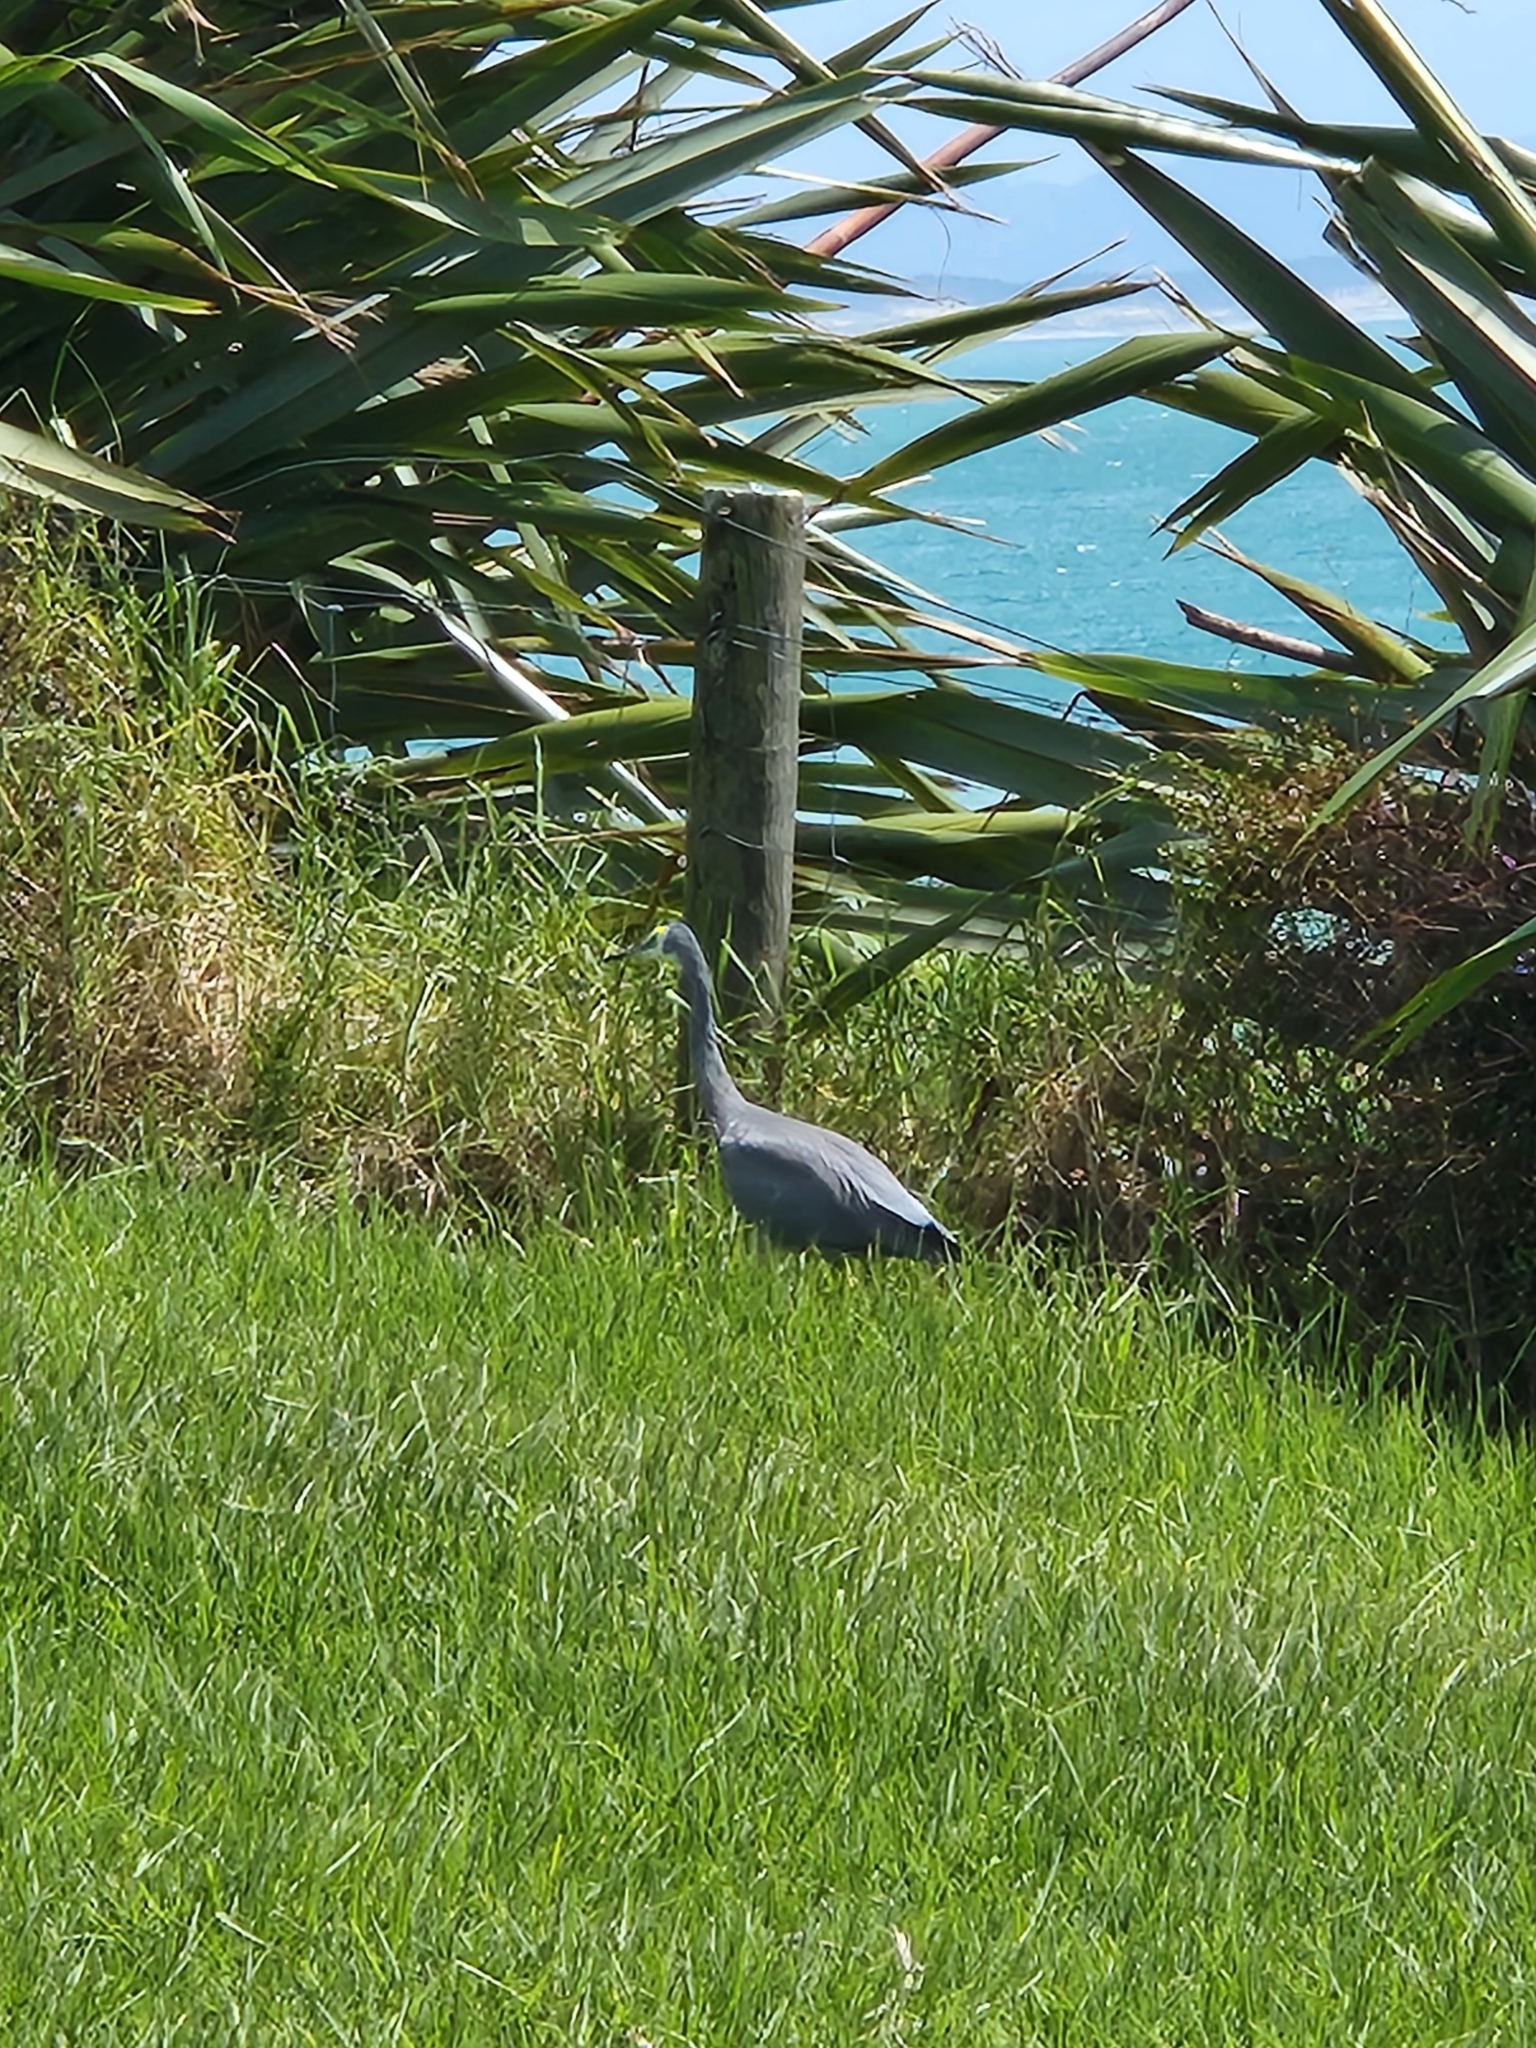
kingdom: Animalia
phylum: Chordata
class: Aves
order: Pelecaniformes
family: Ardeidae
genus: Egretta
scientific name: Egretta novaehollandiae
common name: White-faced heron
